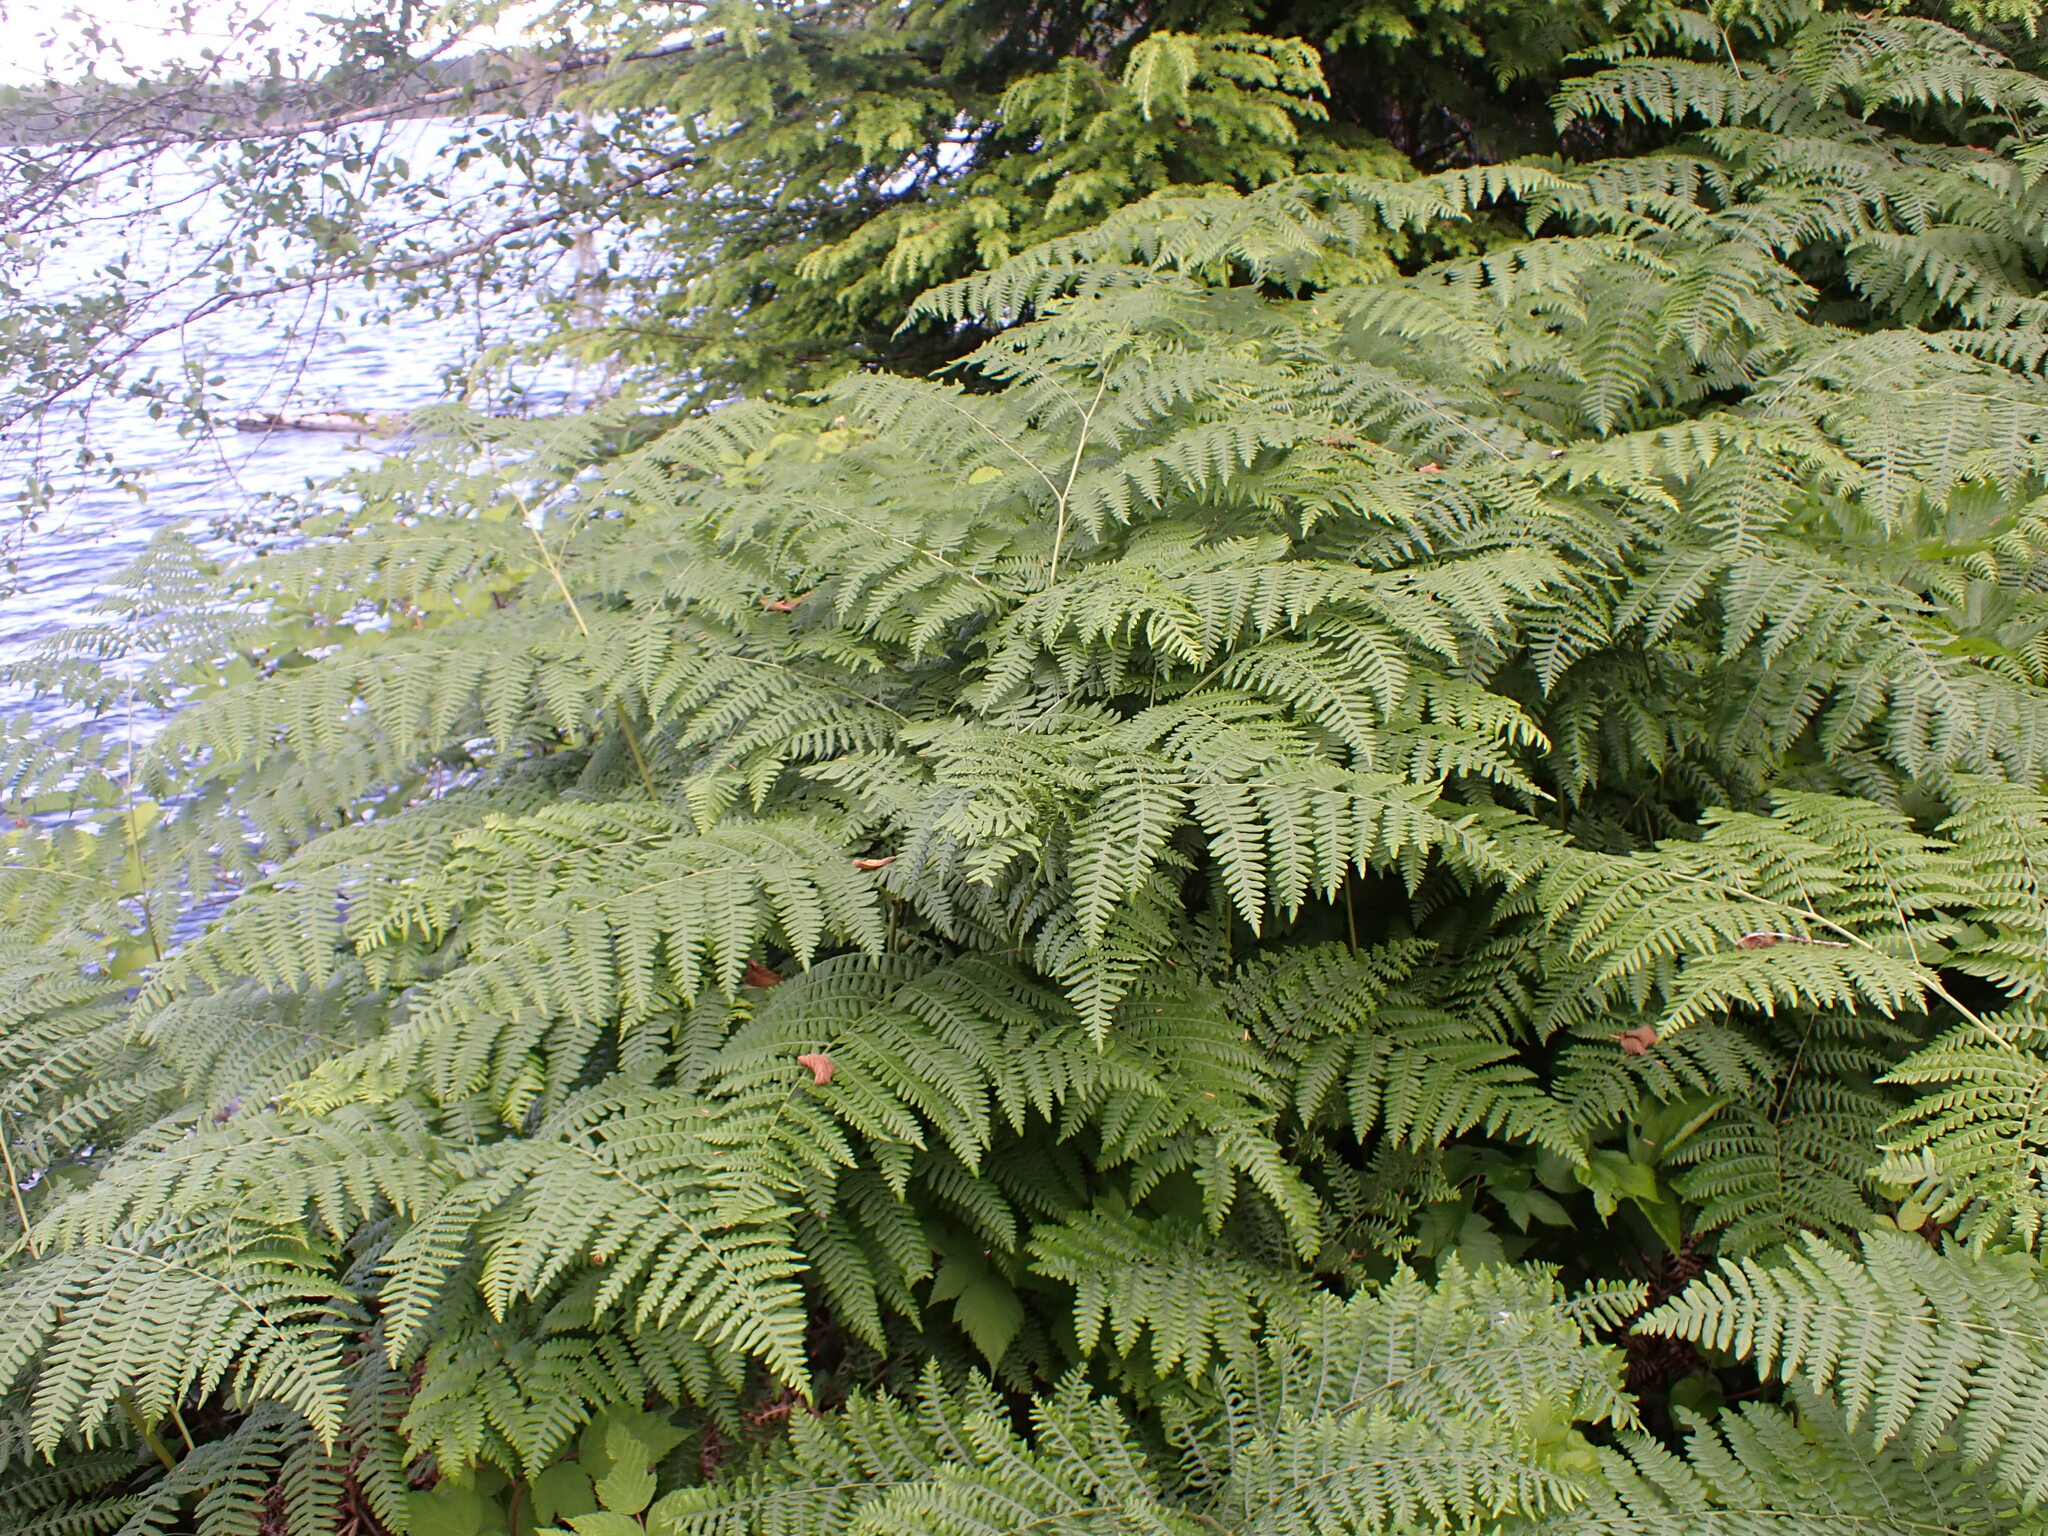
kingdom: Plantae
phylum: Tracheophyta
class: Polypodiopsida
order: Polypodiales
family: Dennstaedtiaceae
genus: Pteridium
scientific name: Pteridium aquilinum
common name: Bracken
